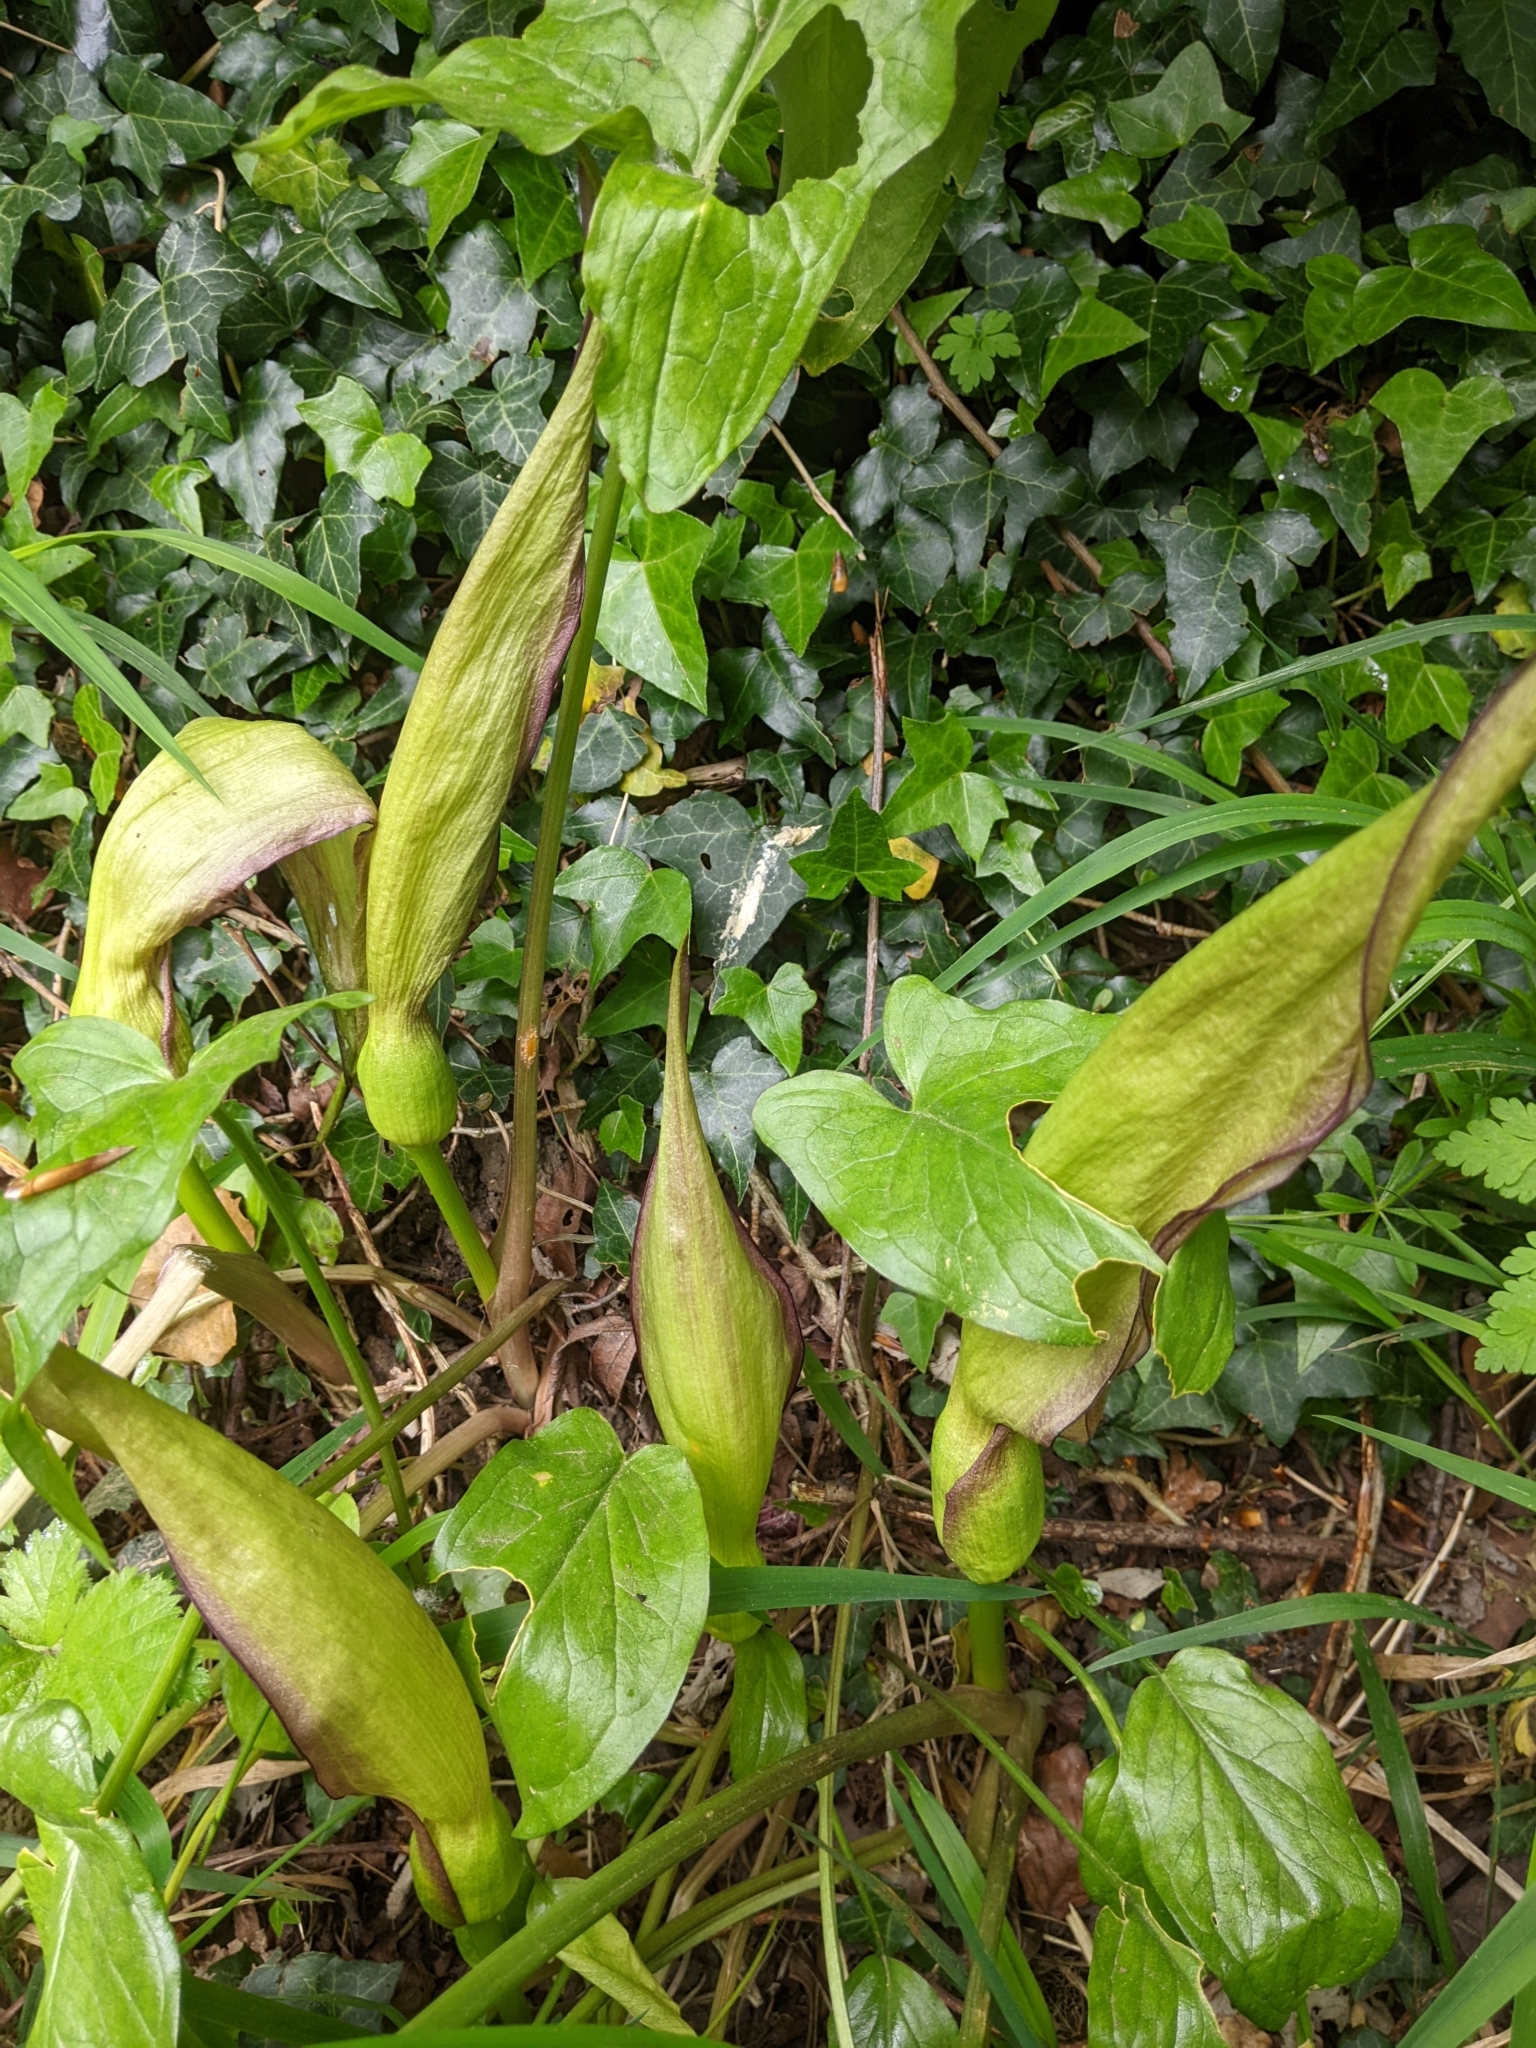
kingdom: Plantae
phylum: Tracheophyta
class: Liliopsida
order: Alismatales
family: Araceae
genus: Arum
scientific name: Arum maculatum
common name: Lords-and-ladies
